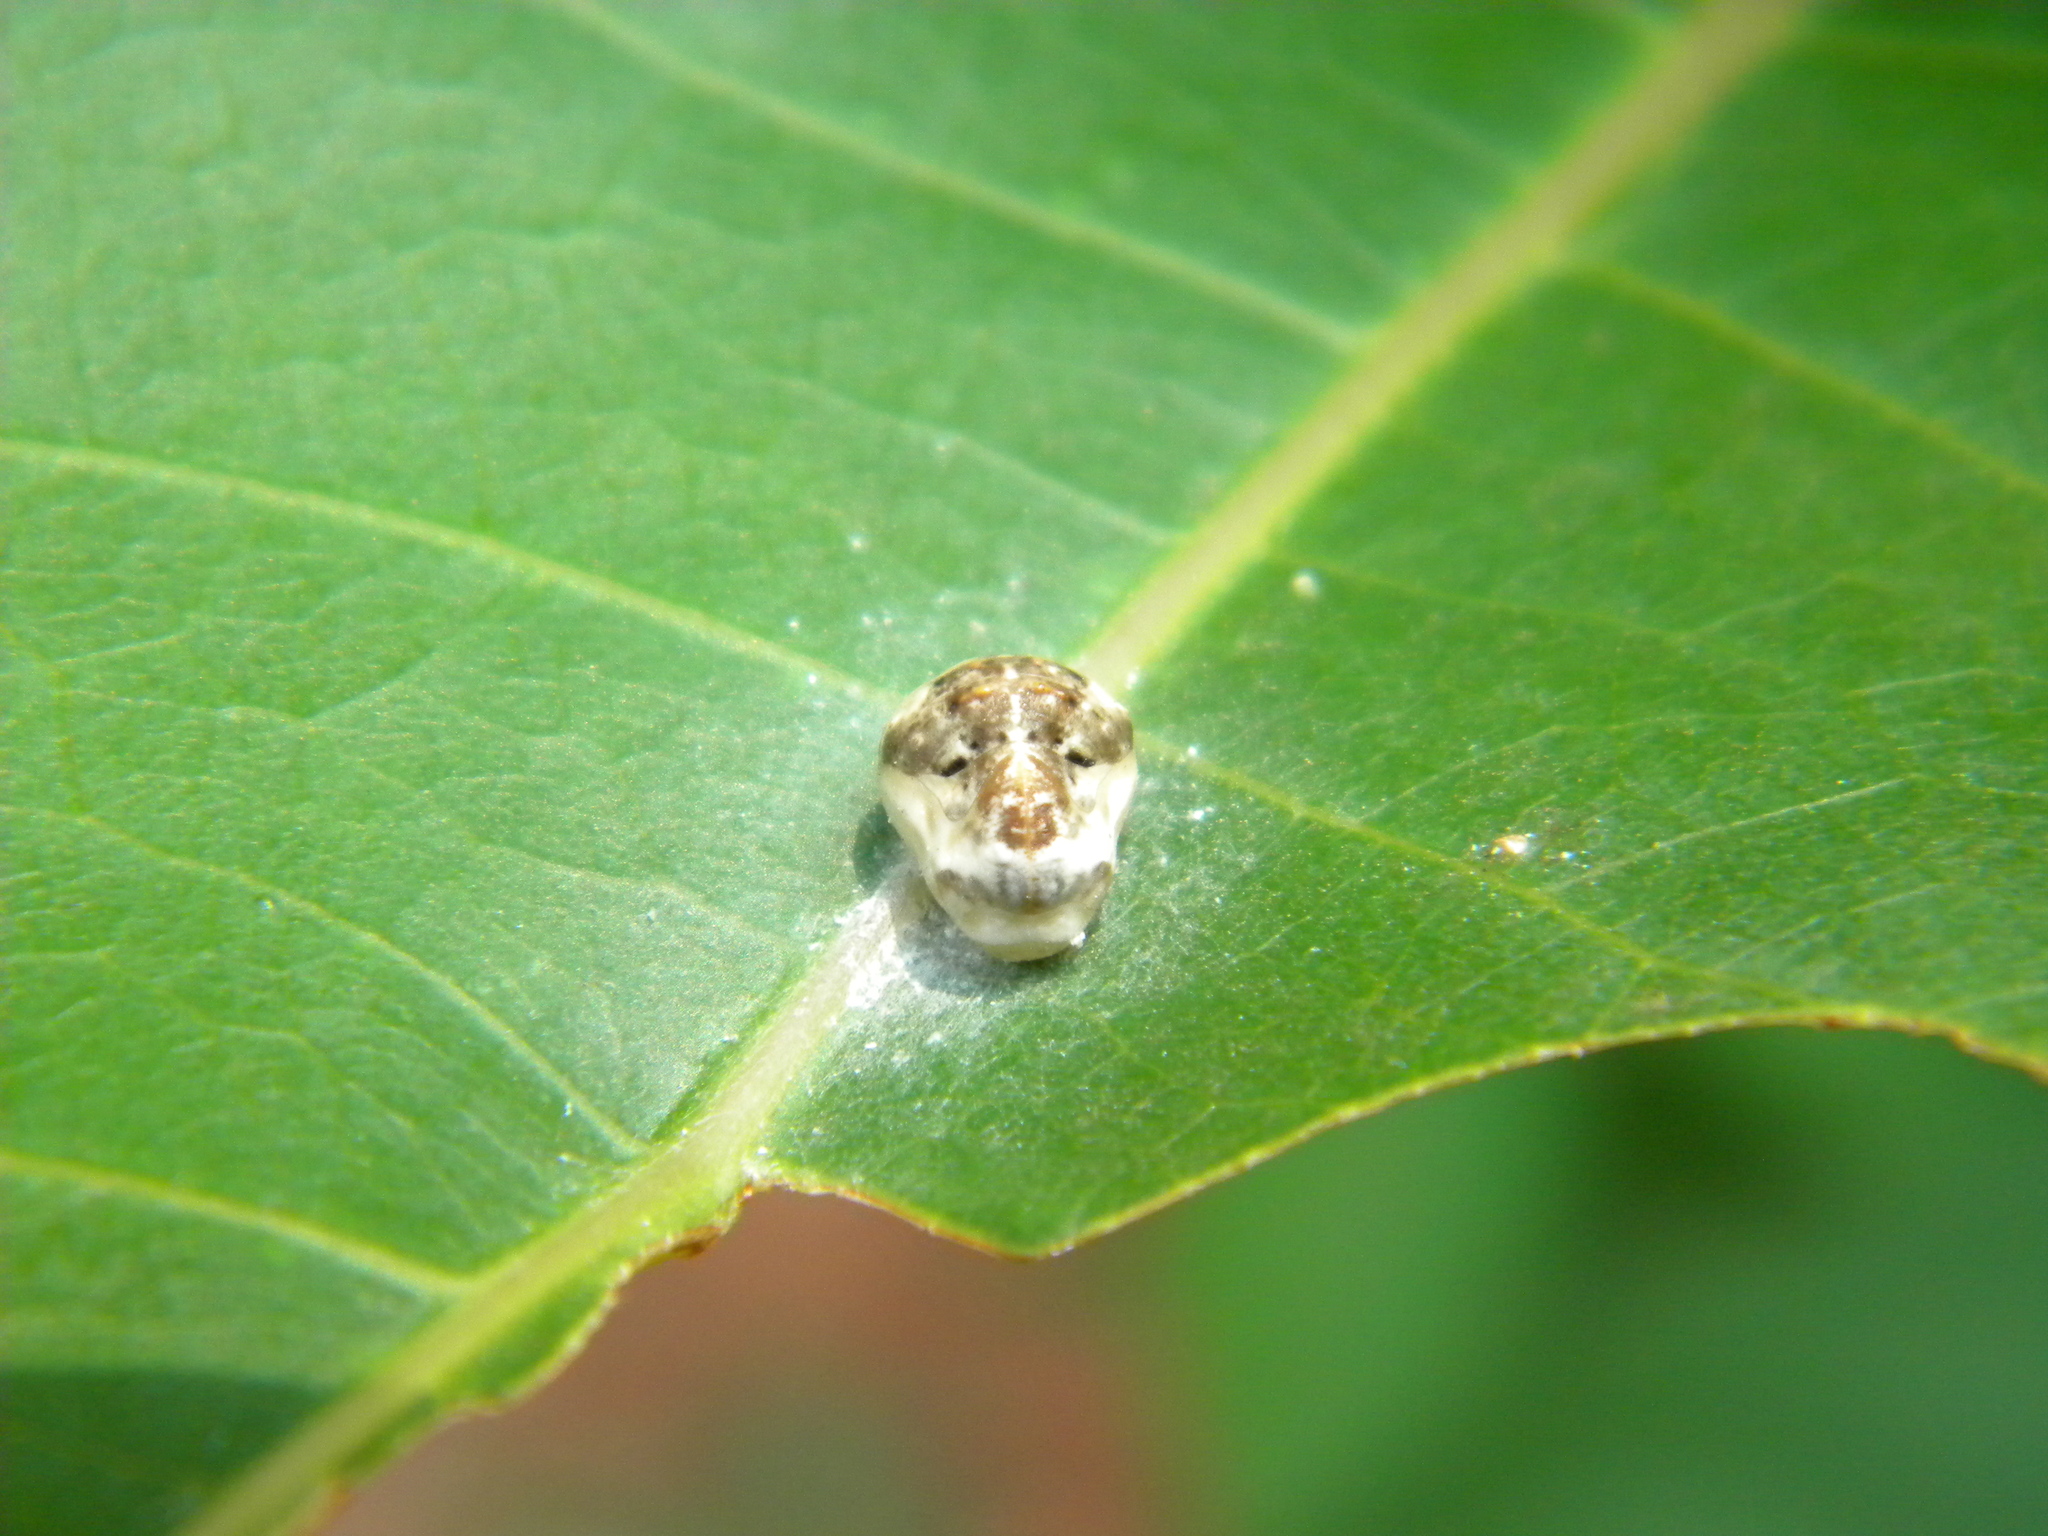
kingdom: Animalia
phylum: Arthropoda
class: Insecta
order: Lepidoptera
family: Lycaenidae
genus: Spalgis
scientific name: Spalgis epius
